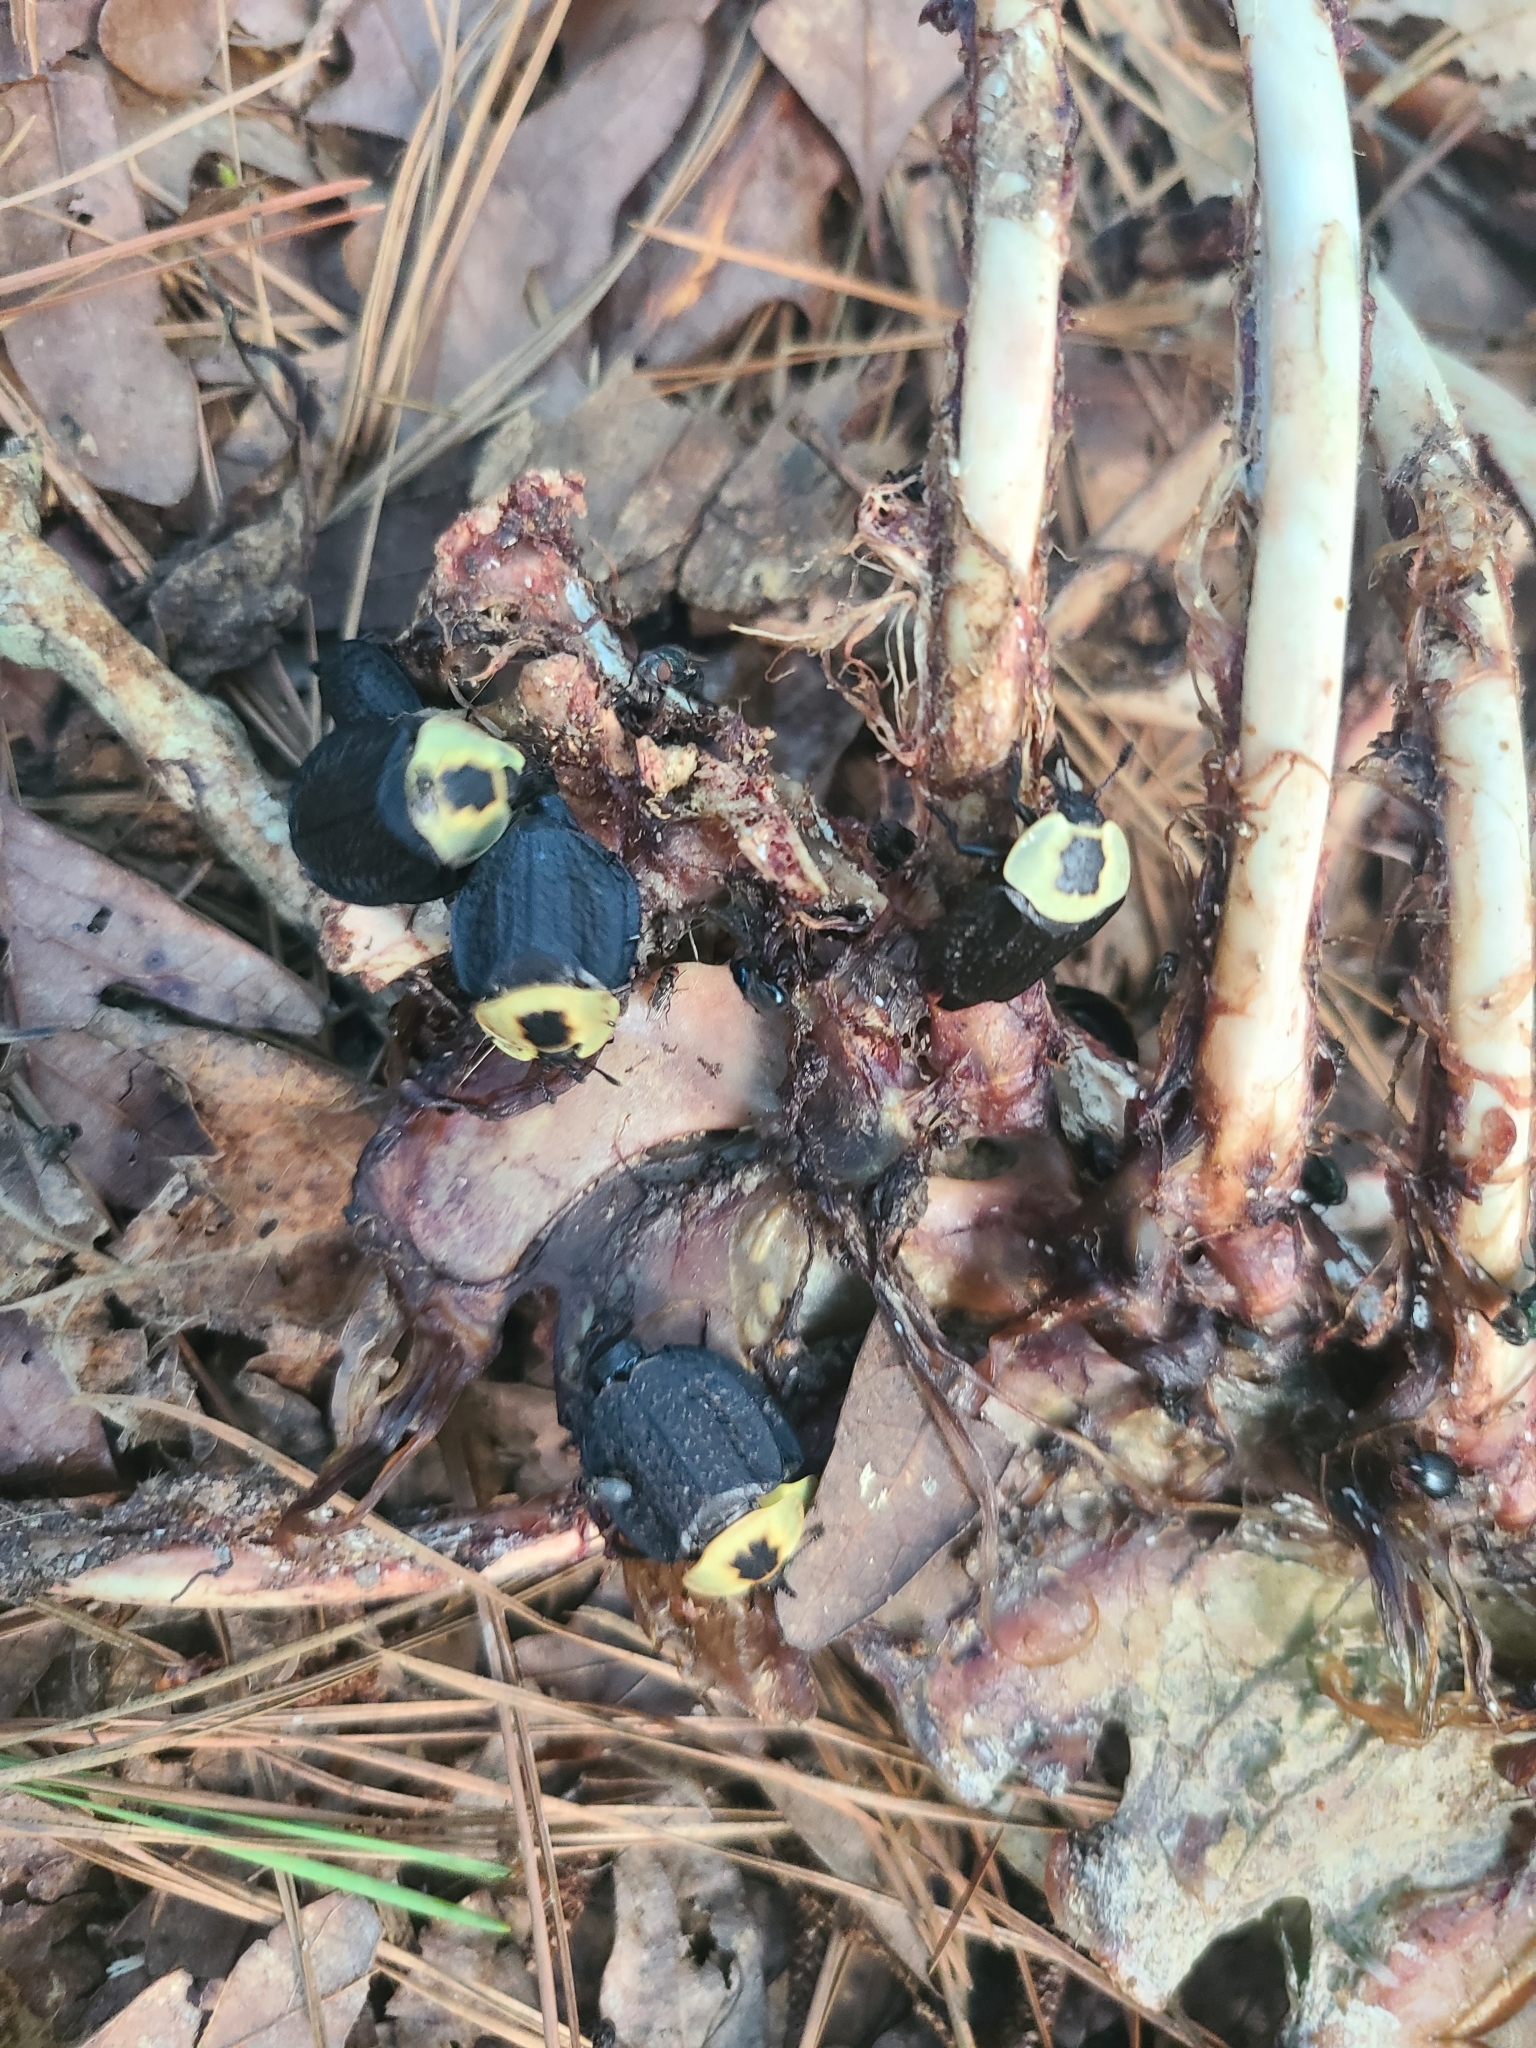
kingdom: Animalia
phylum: Arthropoda
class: Insecta
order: Coleoptera
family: Staphylinidae
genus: Necrophila
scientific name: Necrophila americana
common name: American carrion beetle
